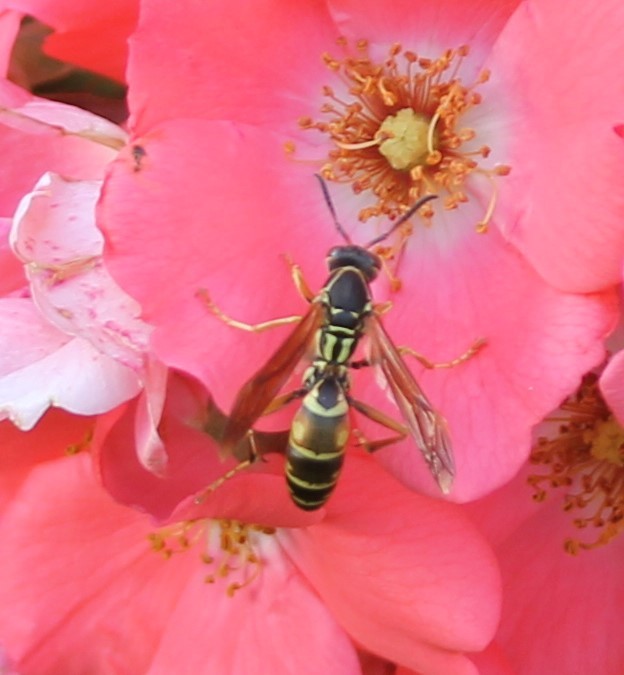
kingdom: Animalia
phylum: Arthropoda
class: Insecta
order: Hymenoptera
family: Eumenidae
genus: Polistes
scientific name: Polistes fuscatus
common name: Dark paper wasp
